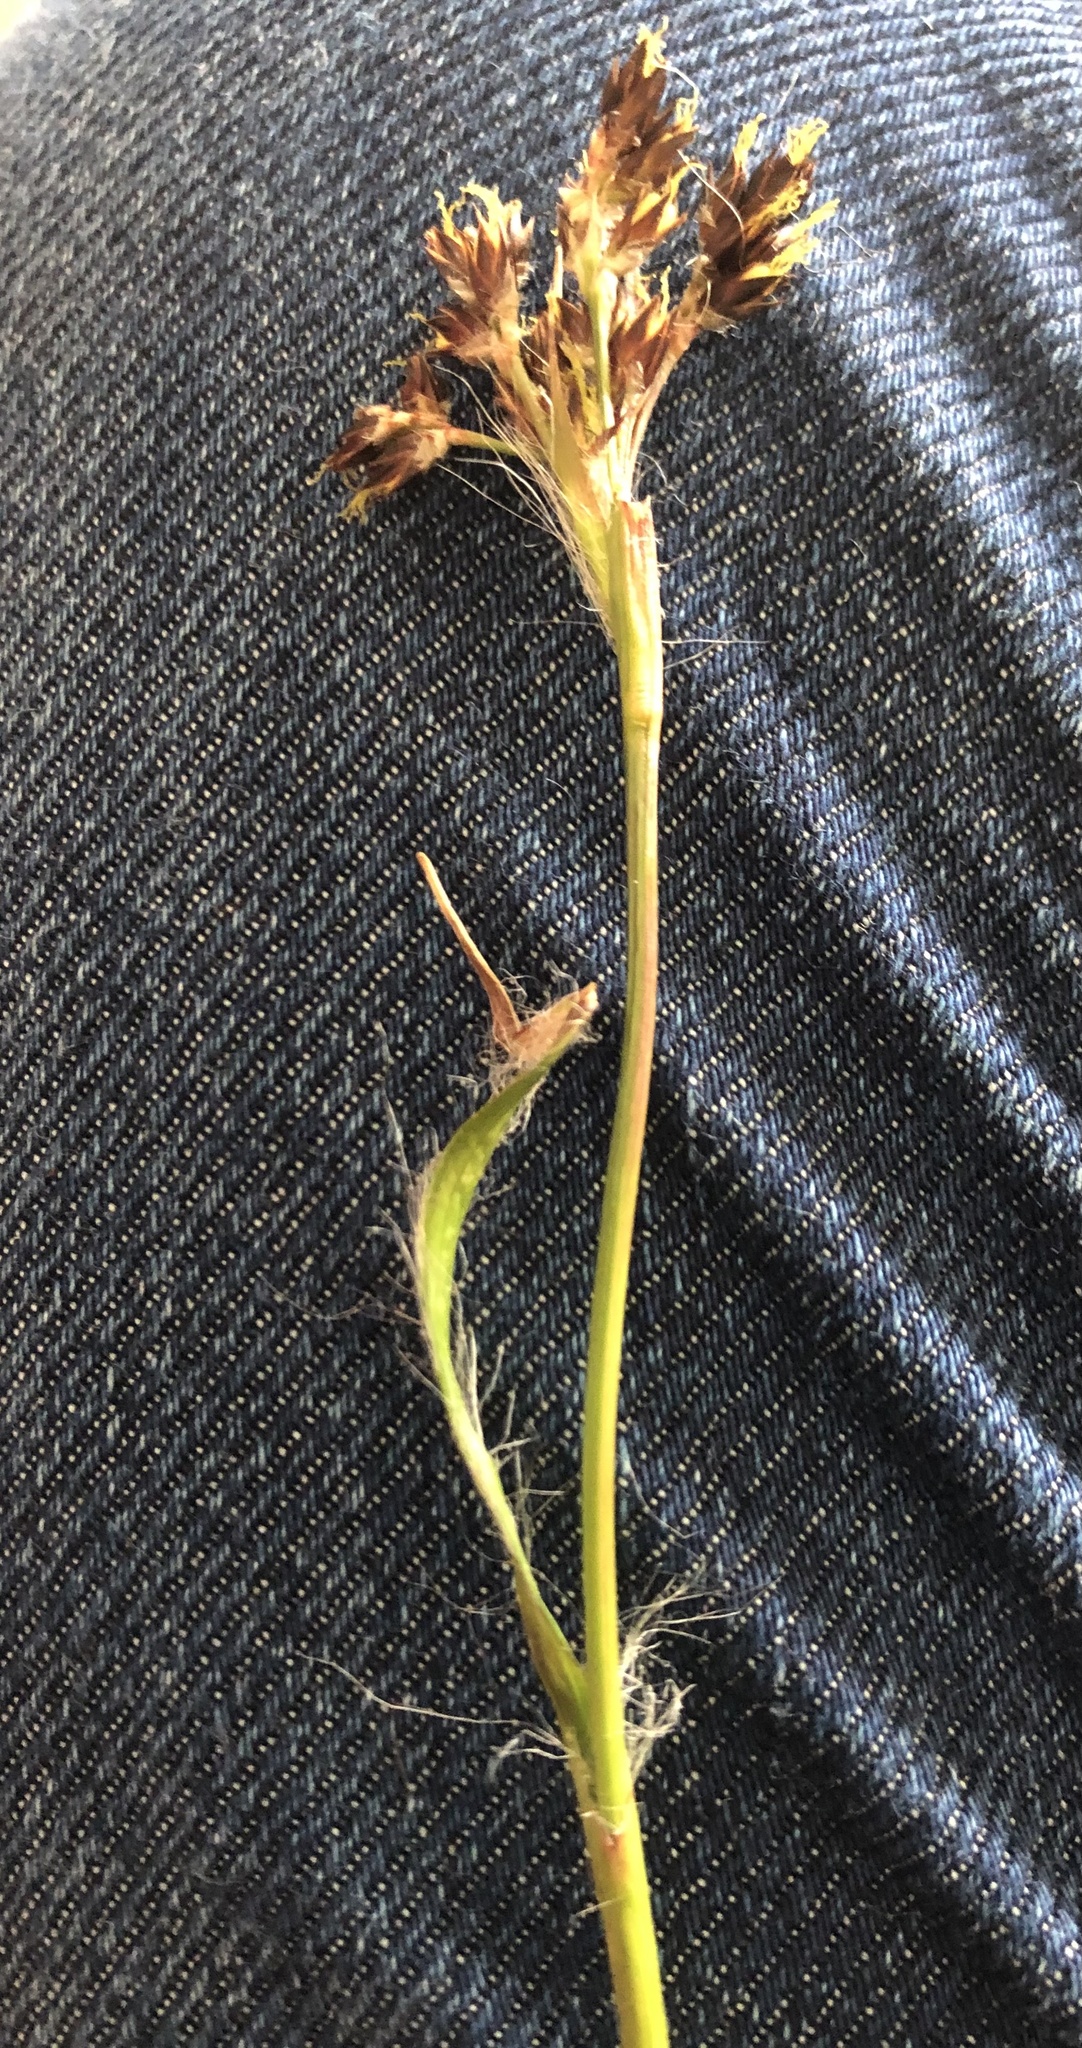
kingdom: Plantae
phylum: Tracheophyta
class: Liliopsida
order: Poales
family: Juncaceae
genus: Luzula
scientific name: Luzula campestris
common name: Field wood-rush
